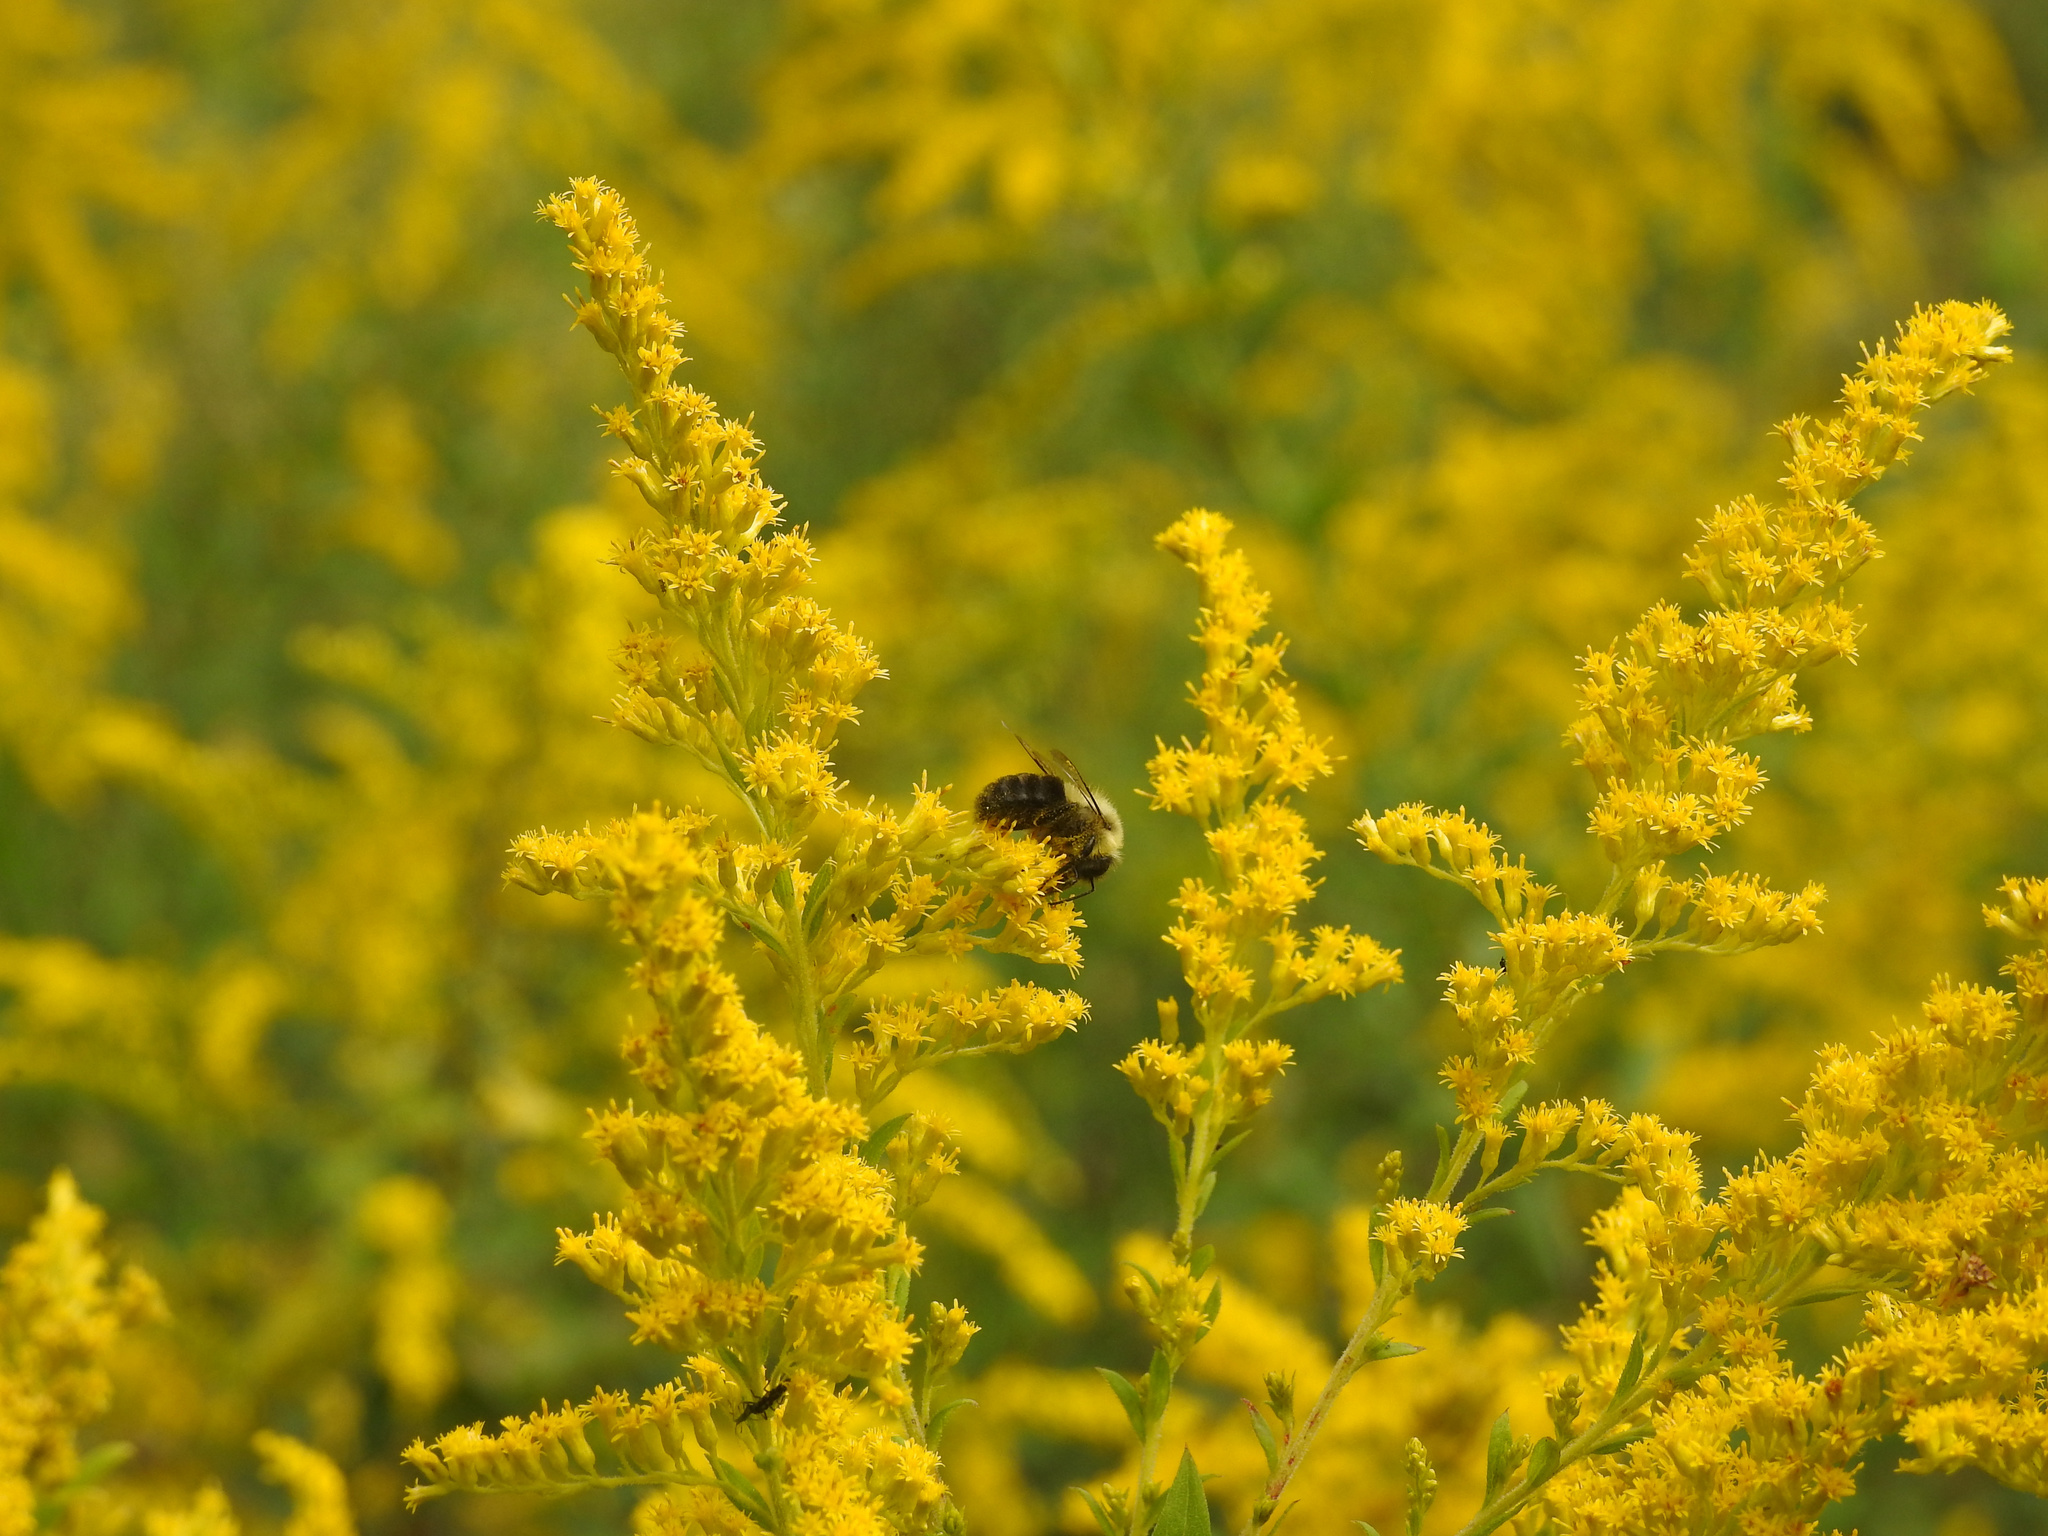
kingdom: Animalia
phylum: Arthropoda
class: Insecta
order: Hymenoptera
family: Apidae
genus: Bombus
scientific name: Bombus impatiens
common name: Common eastern bumble bee
